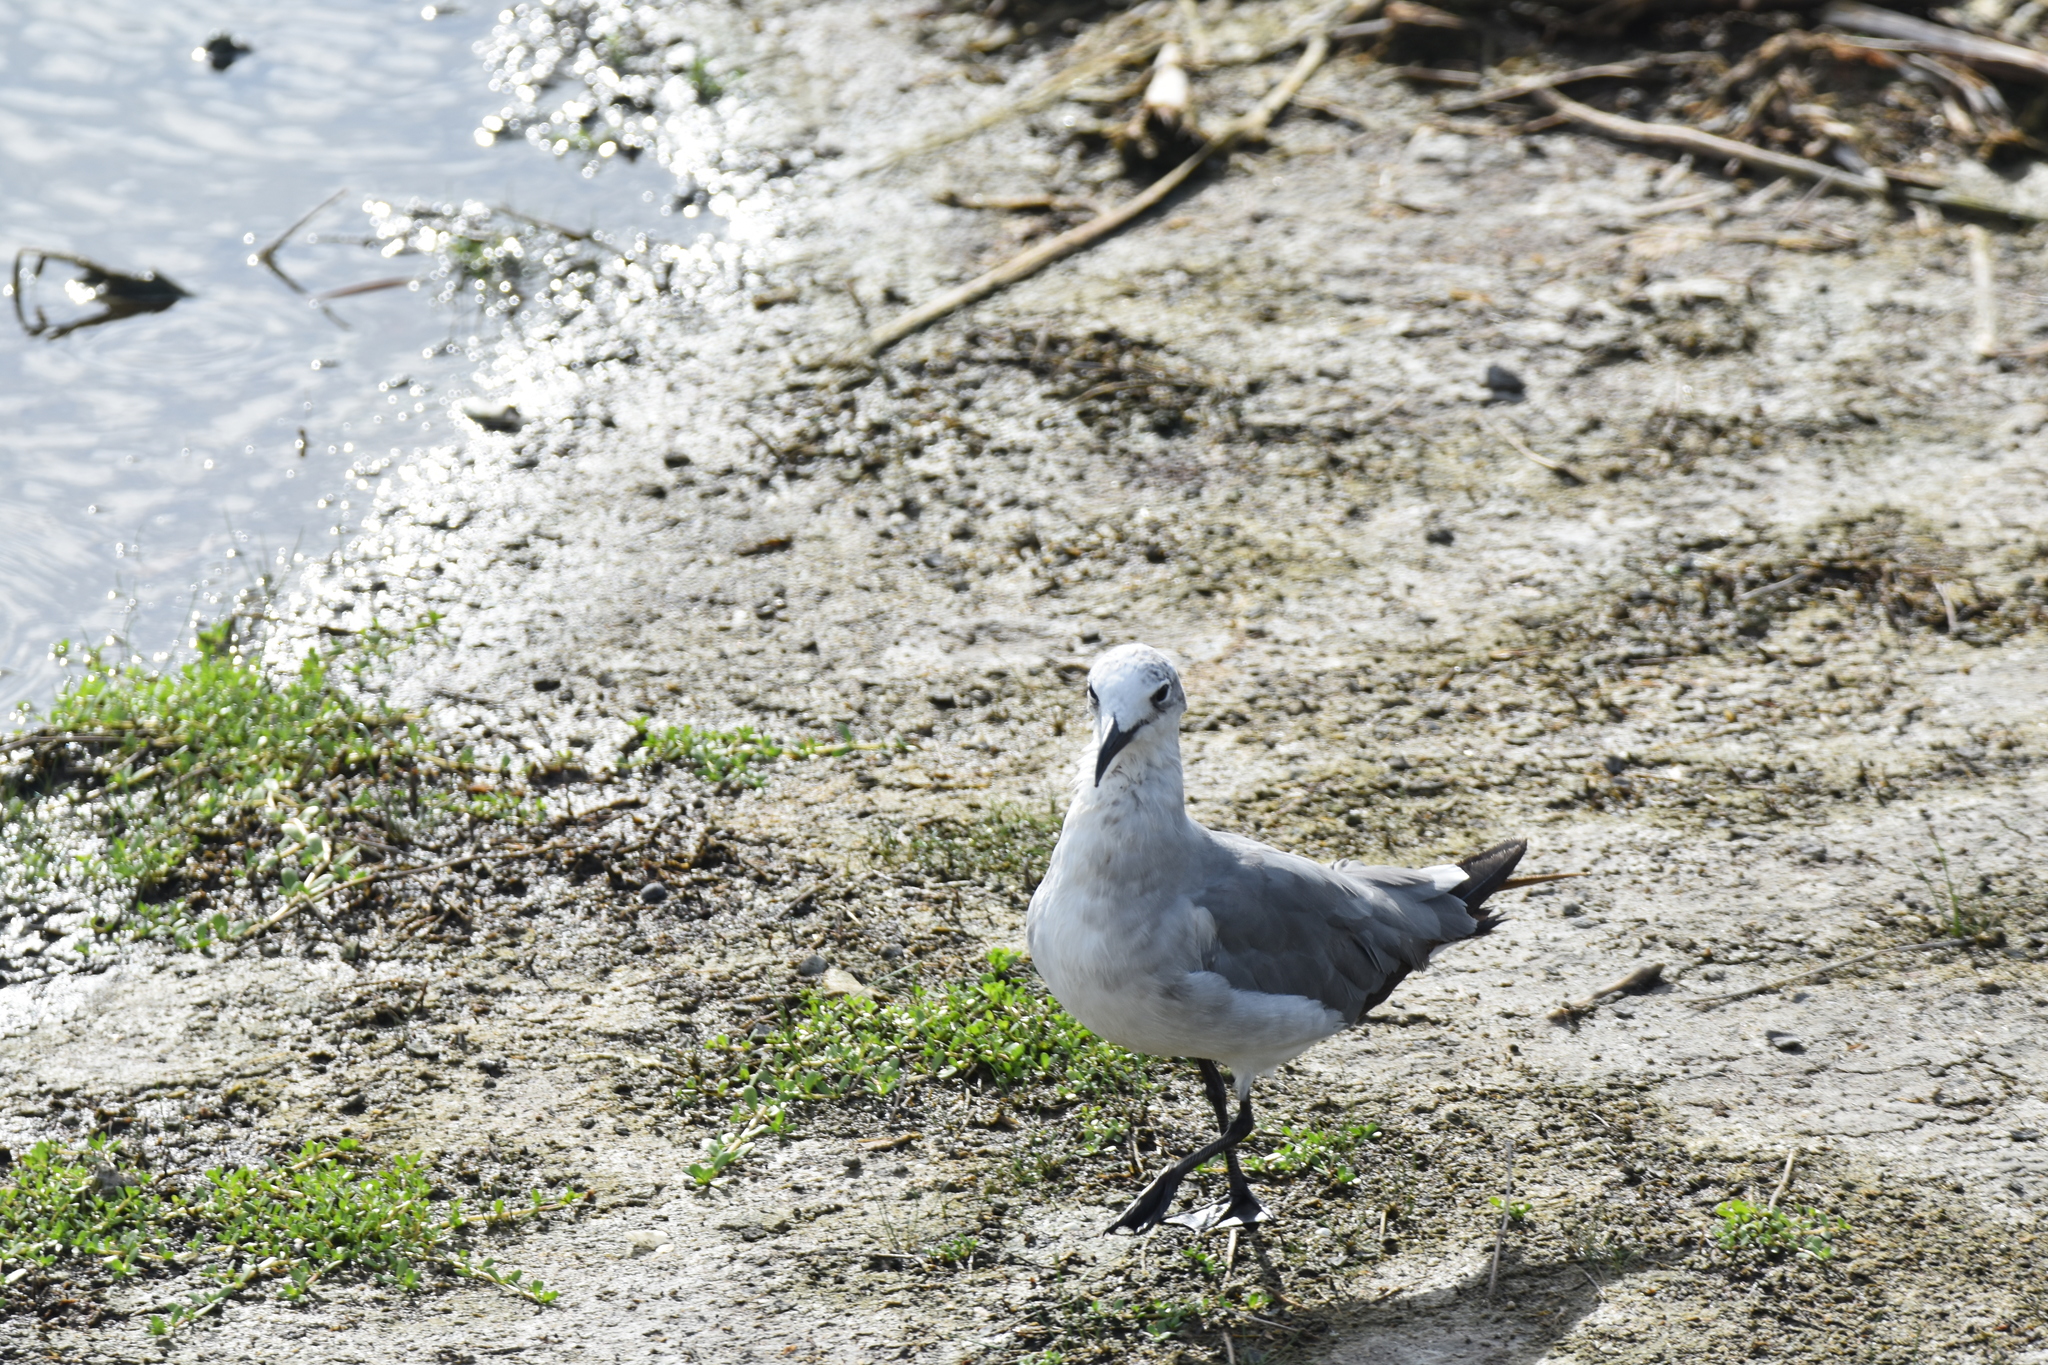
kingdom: Animalia
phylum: Chordata
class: Aves
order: Charadriiformes
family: Laridae
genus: Leucophaeus
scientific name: Leucophaeus atricilla
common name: Laughing gull
